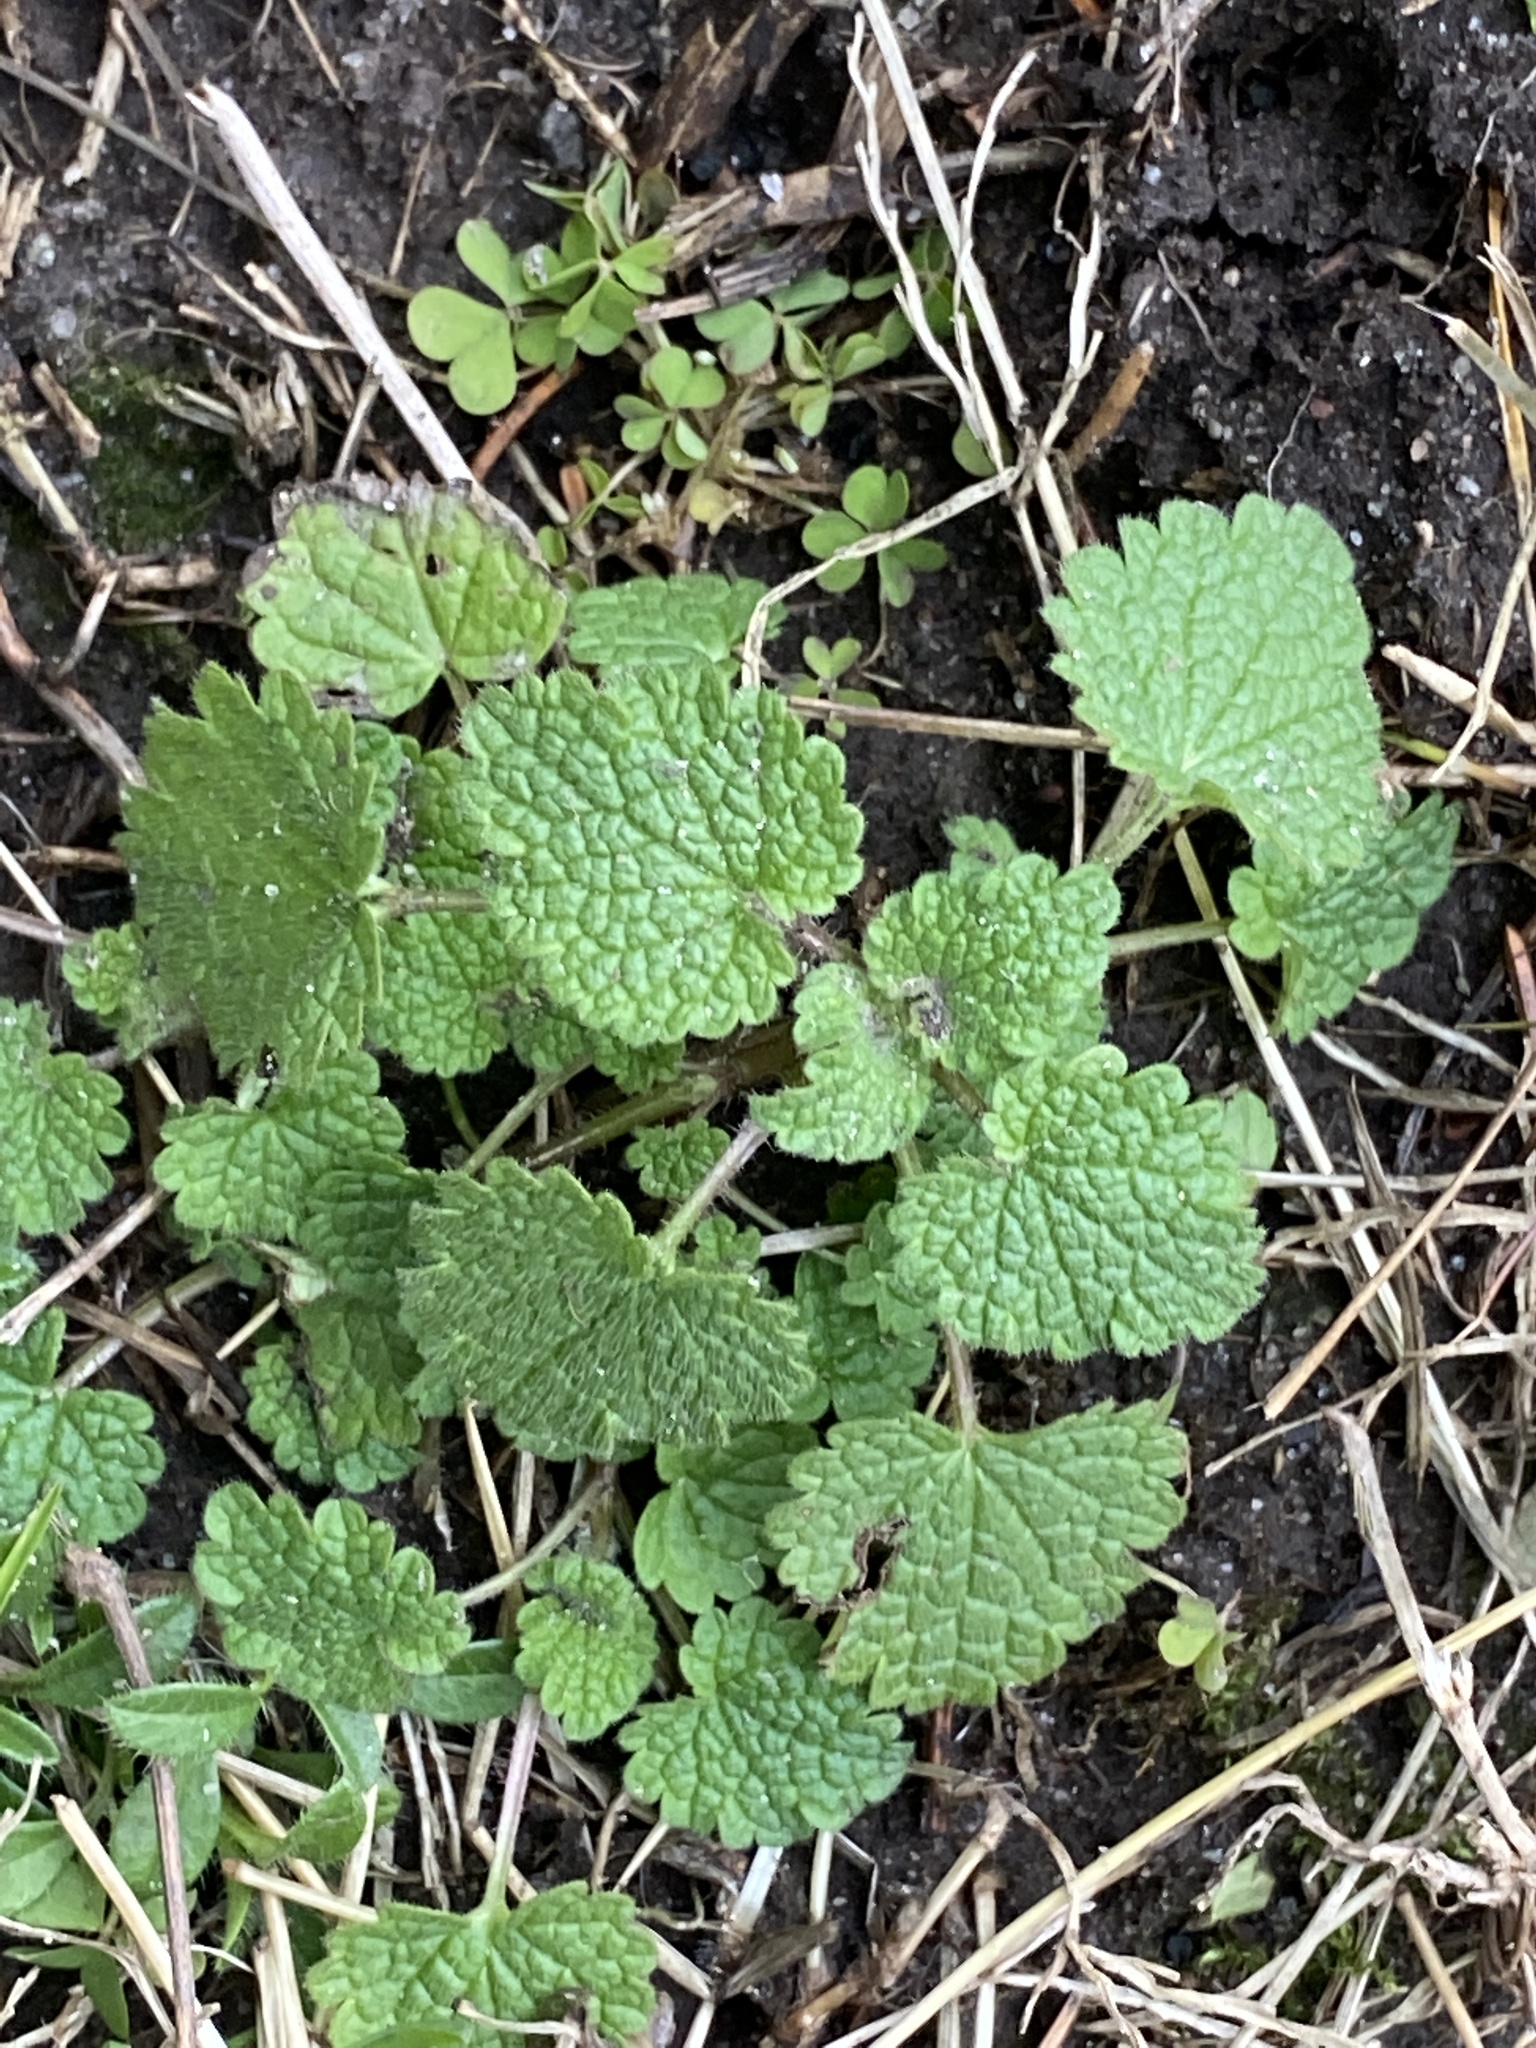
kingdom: Plantae
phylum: Tracheophyta
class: Magnoliopsida
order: Lamiales
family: Lamiaceae
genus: Lamium
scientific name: Lamium purpureum
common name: Red dead-nettle
